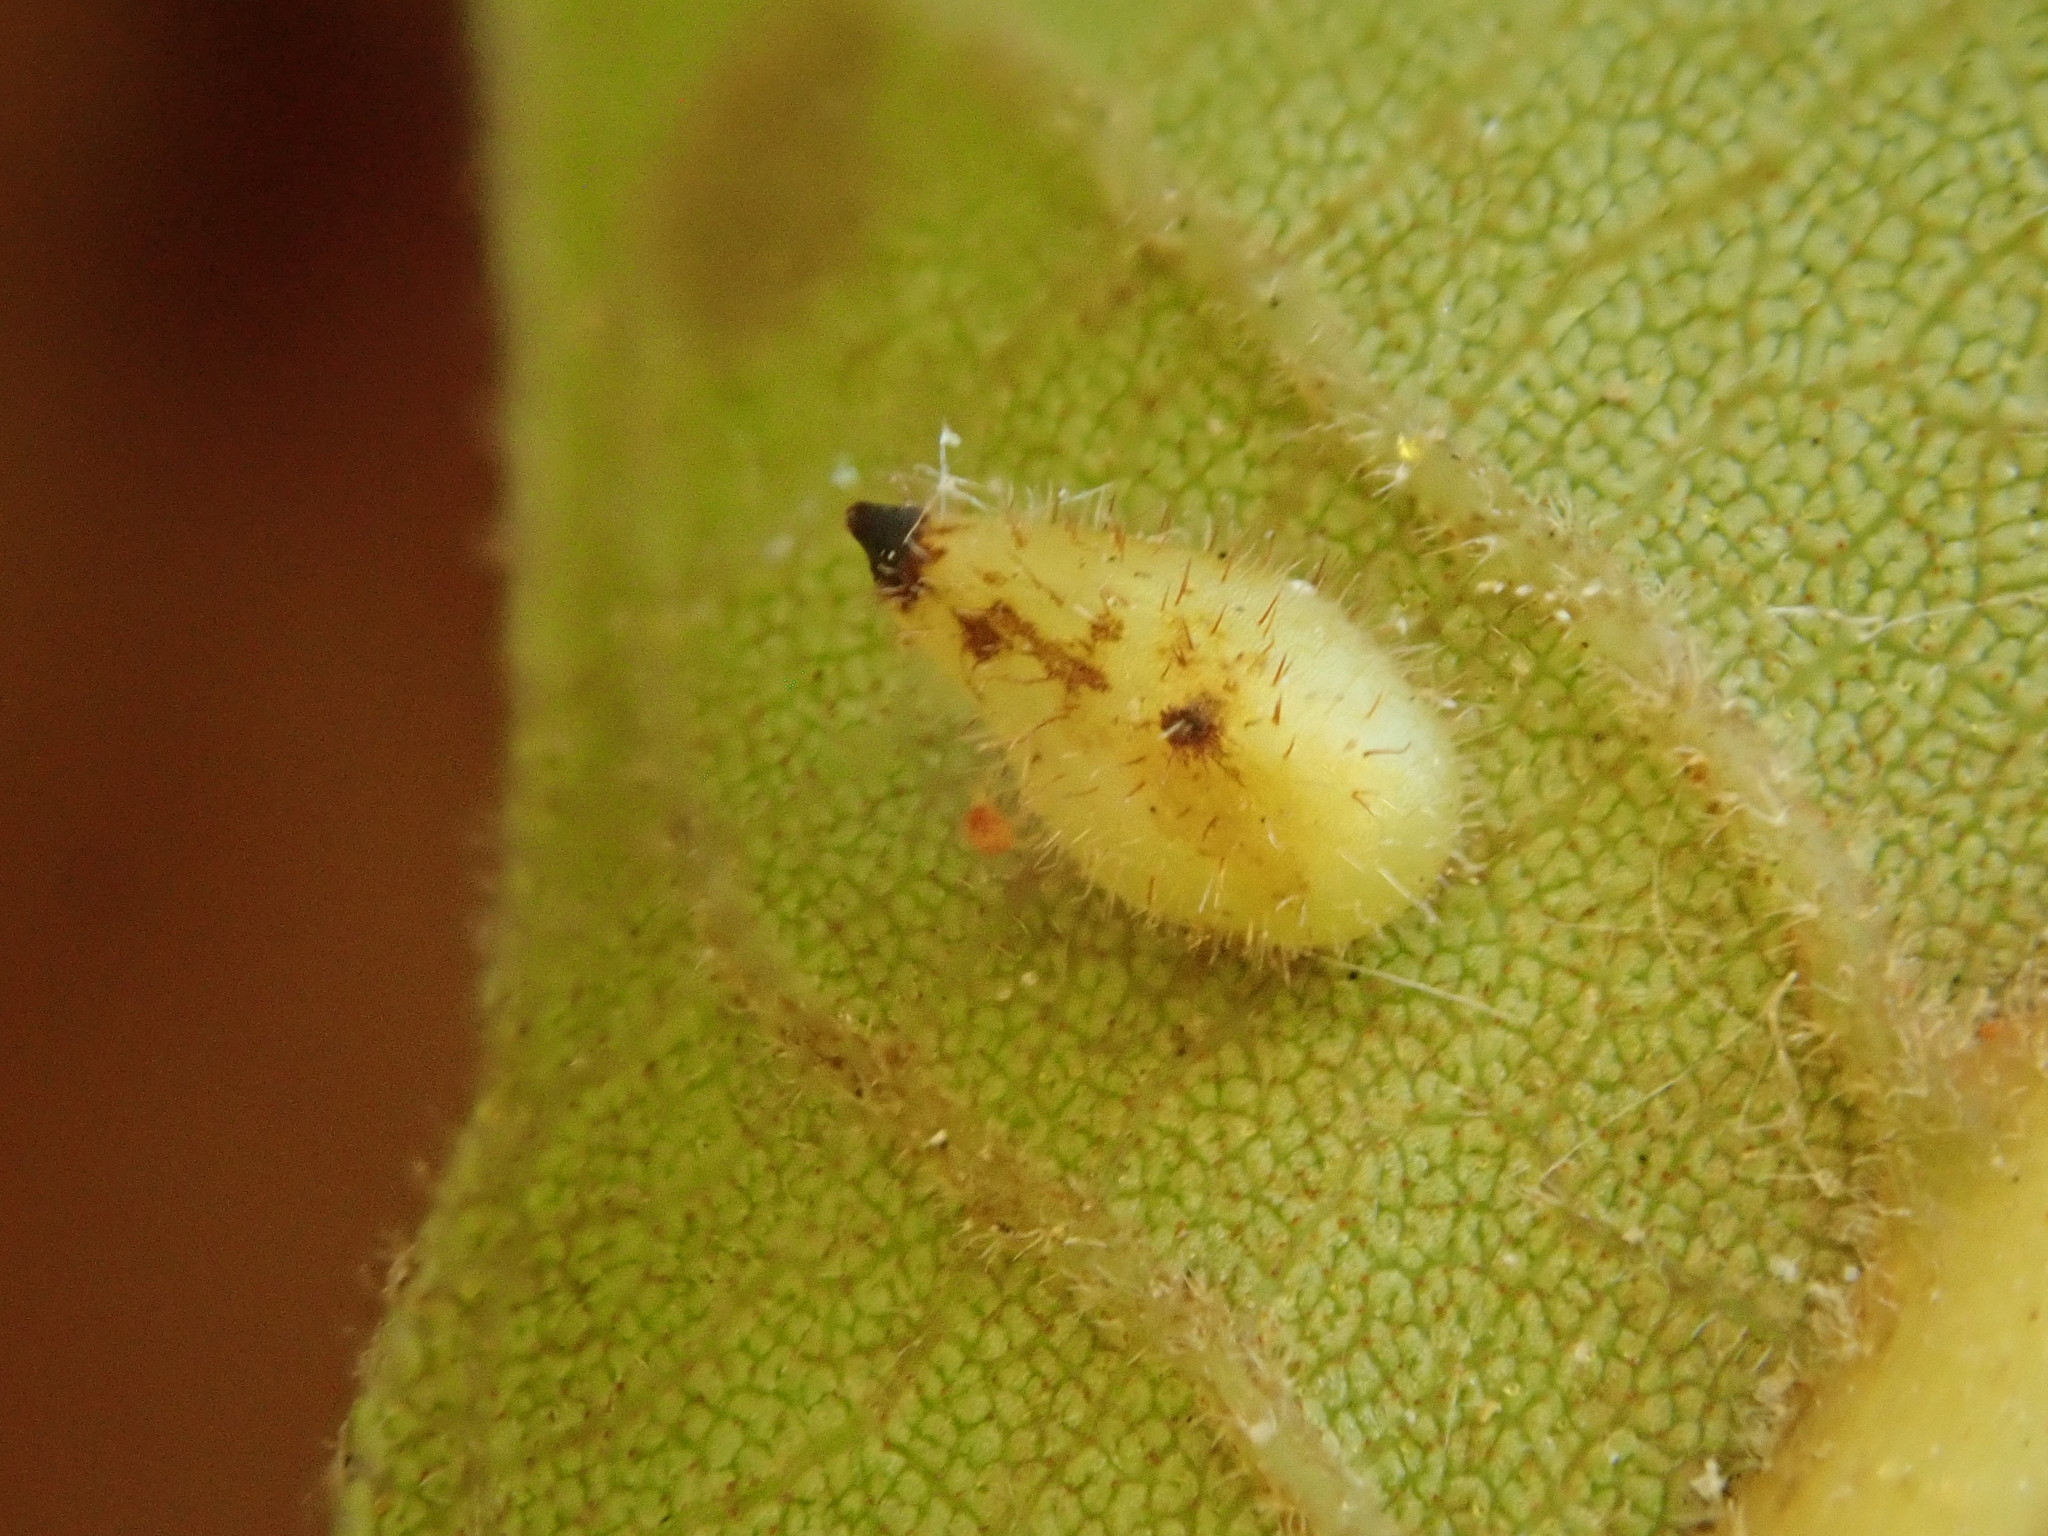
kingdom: Animalia
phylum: Arthropoda
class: Insecta
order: Diptera
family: Cecidomyiidae
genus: Caryomyia
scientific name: Caryomyia eumaris
